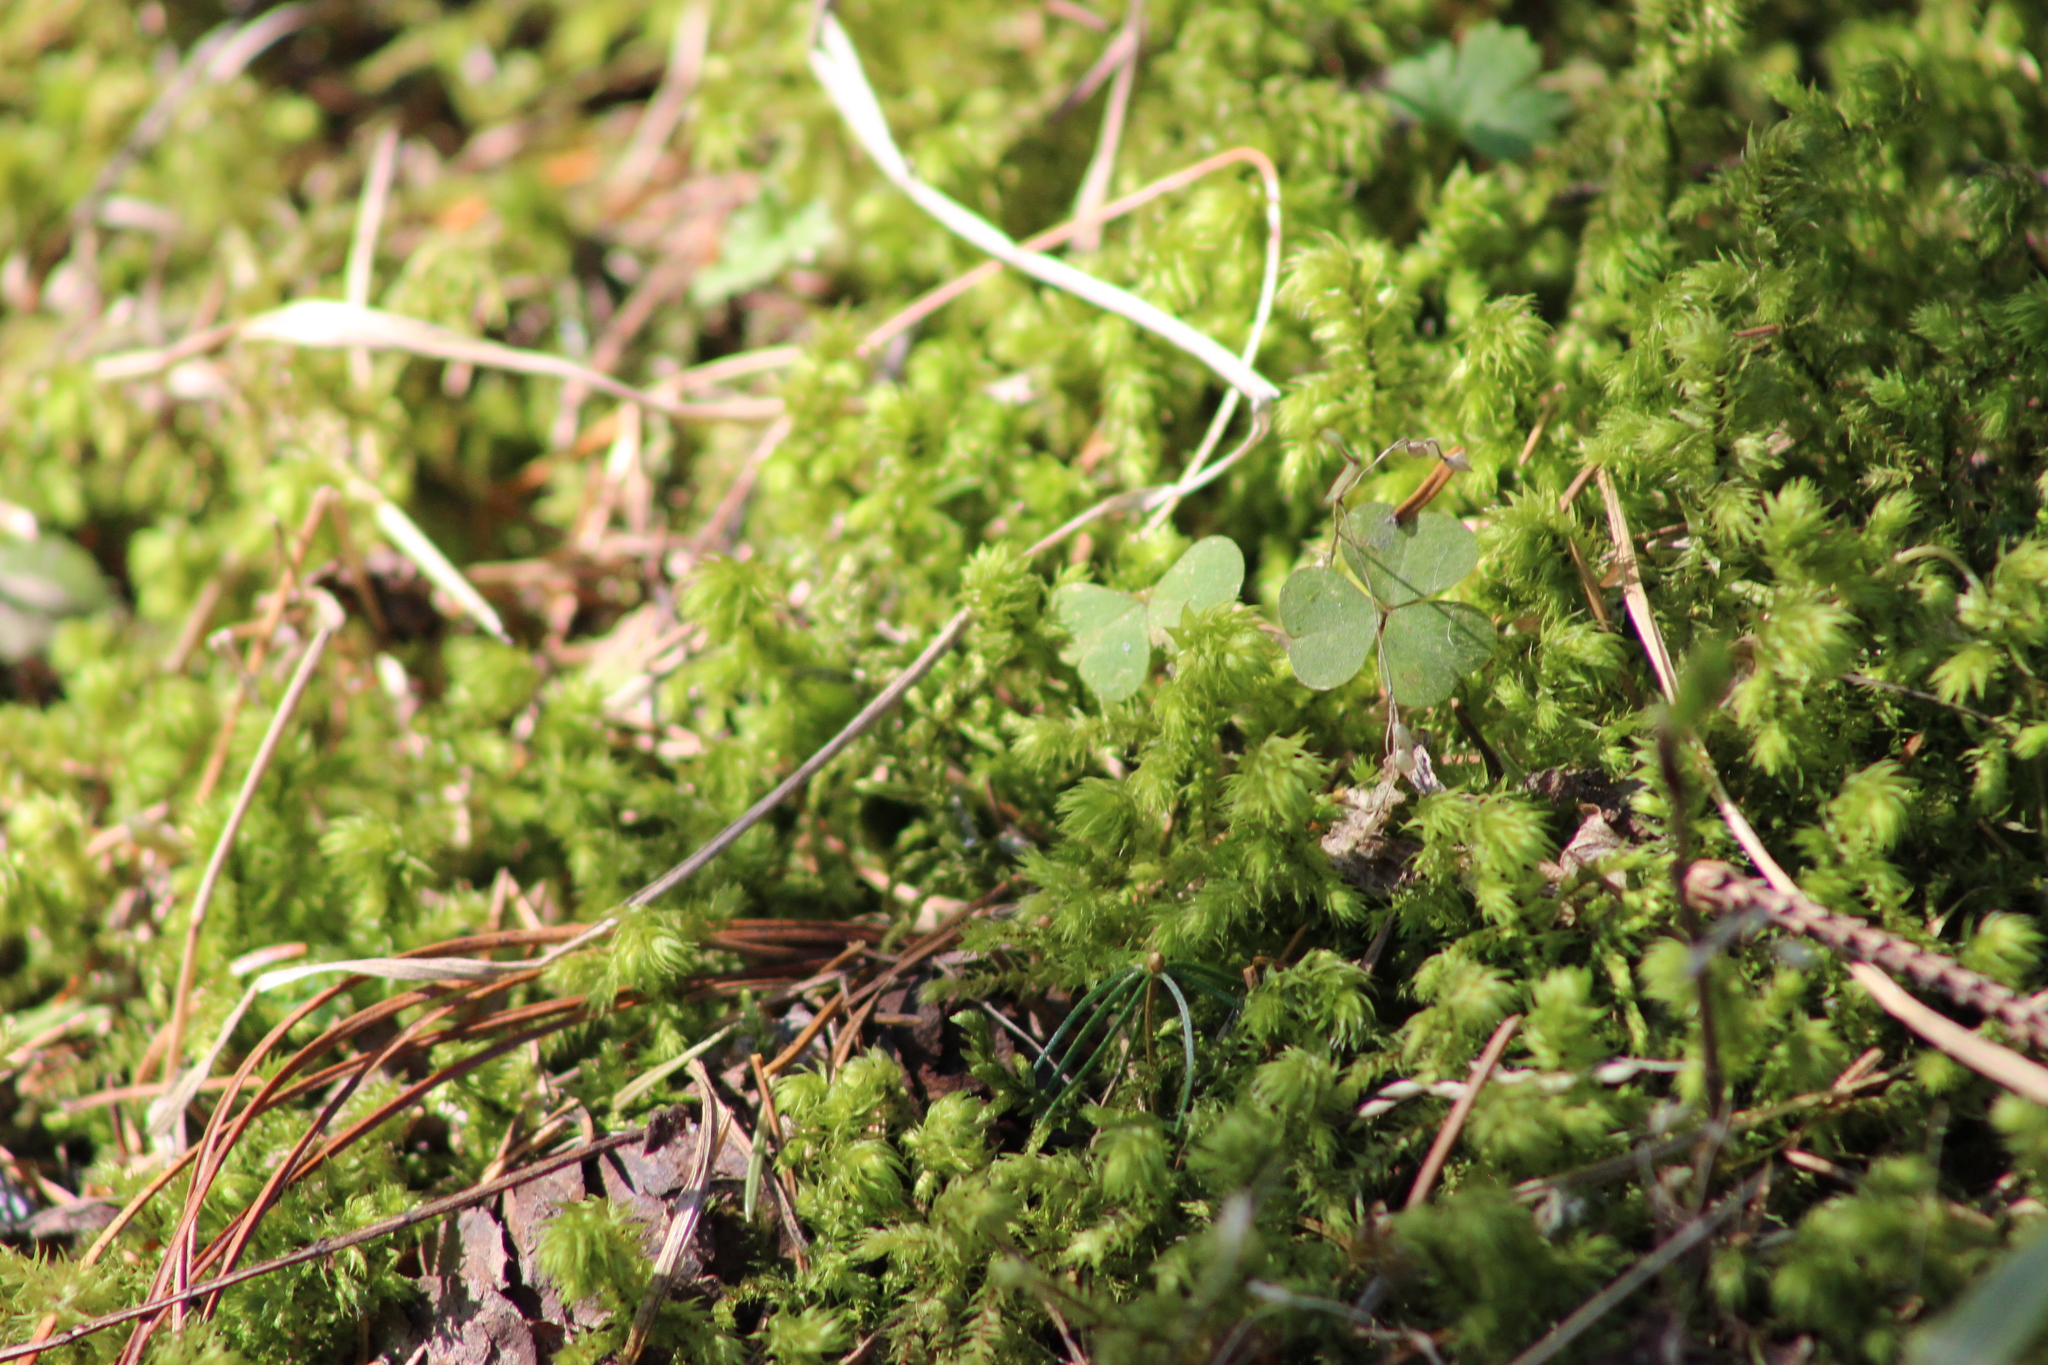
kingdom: Plantae
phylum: Bryophyta
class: Bryopsida
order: Hypnales
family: Hylocomiaceae
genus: Hylocomiadelphus
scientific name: Hylocomiadelphus triquetrus
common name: Rough goose neck moss
